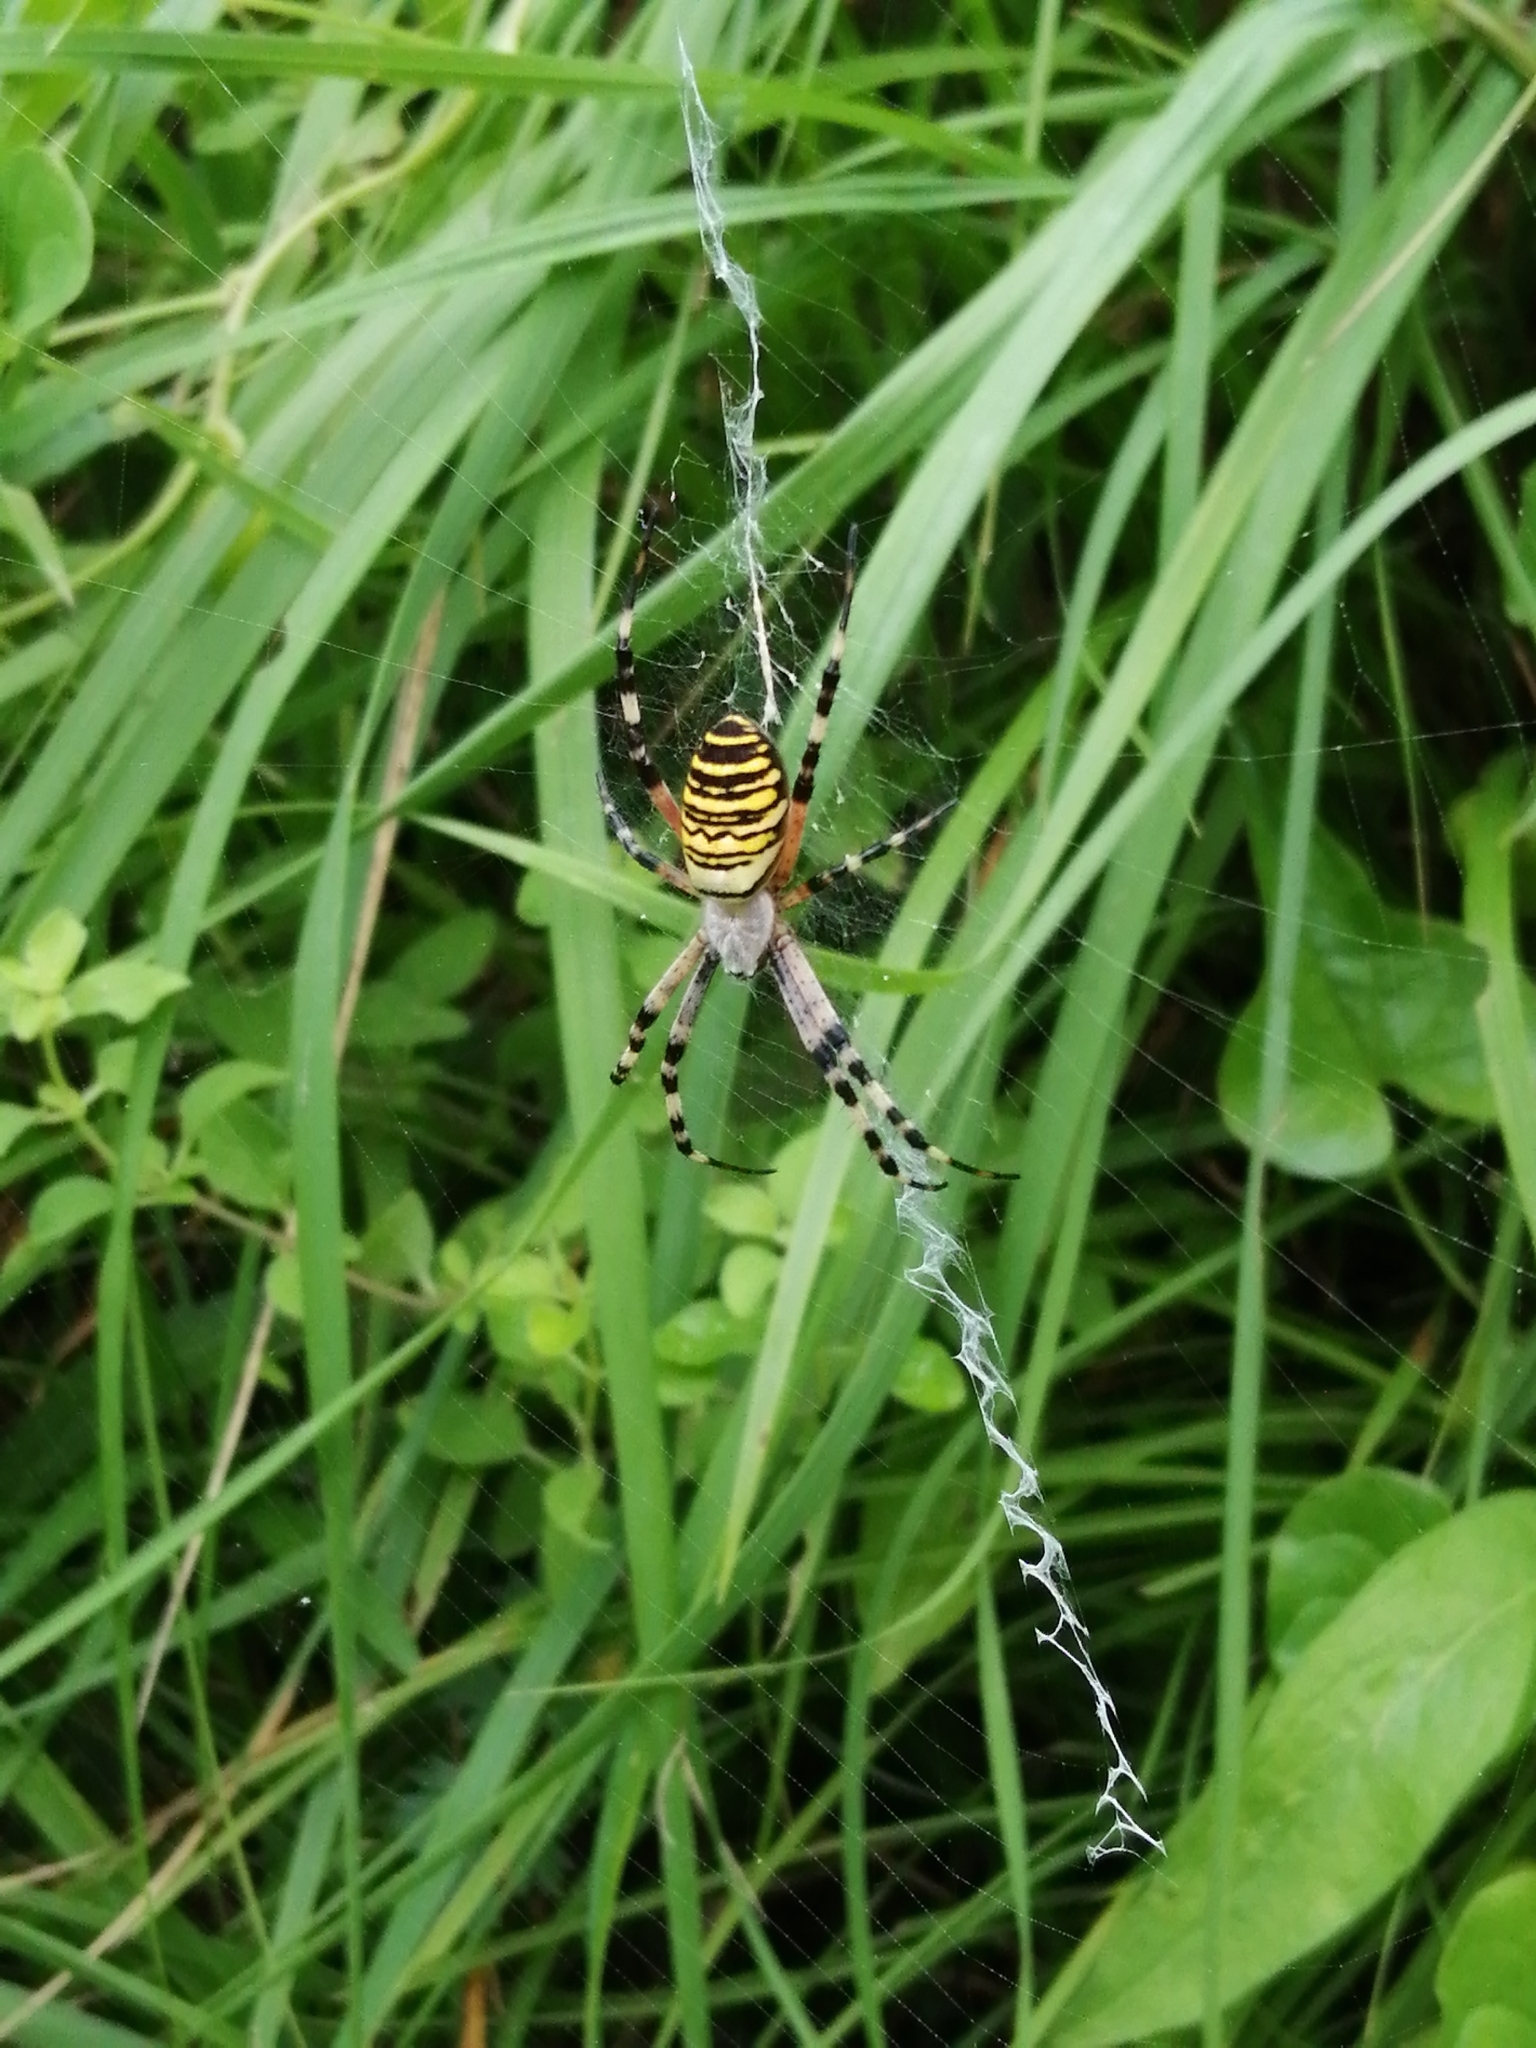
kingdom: Animalia
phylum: Arthropoda
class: Arachnida
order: Araneae
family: Araneidae
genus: Argiope
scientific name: Argiope bruennichi
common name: Wasp spider
